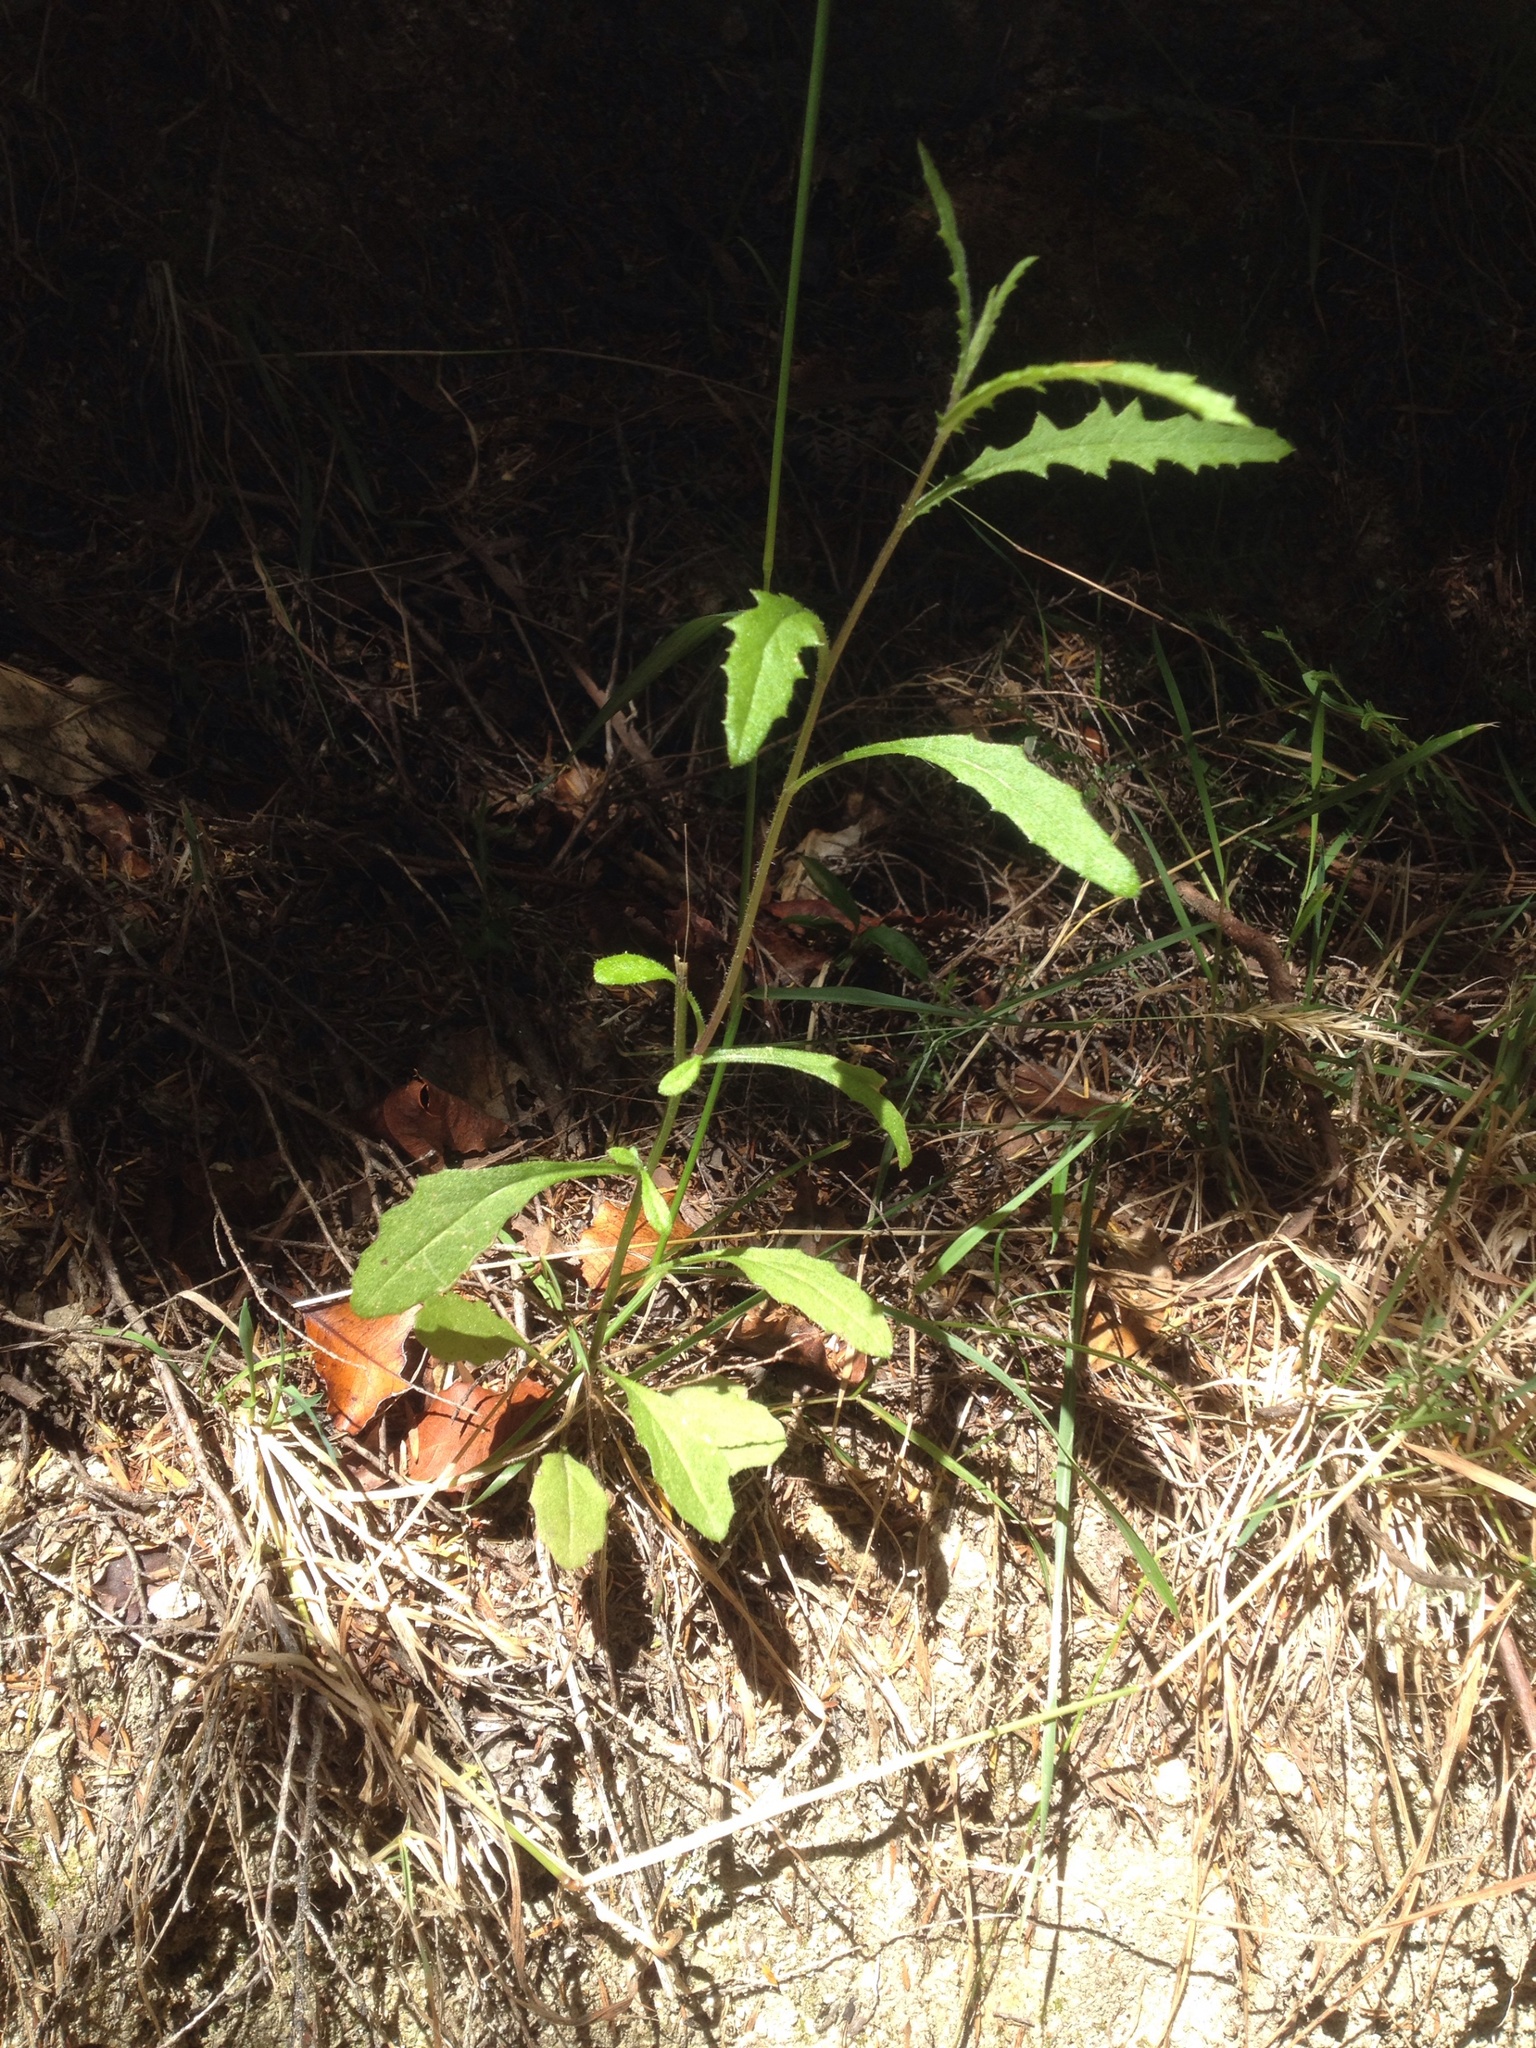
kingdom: Plantae
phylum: Tracheophyta
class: Magnoliopsida
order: Asterales
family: Asteraceae
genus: Senecio
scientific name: Senecio hispidulus
